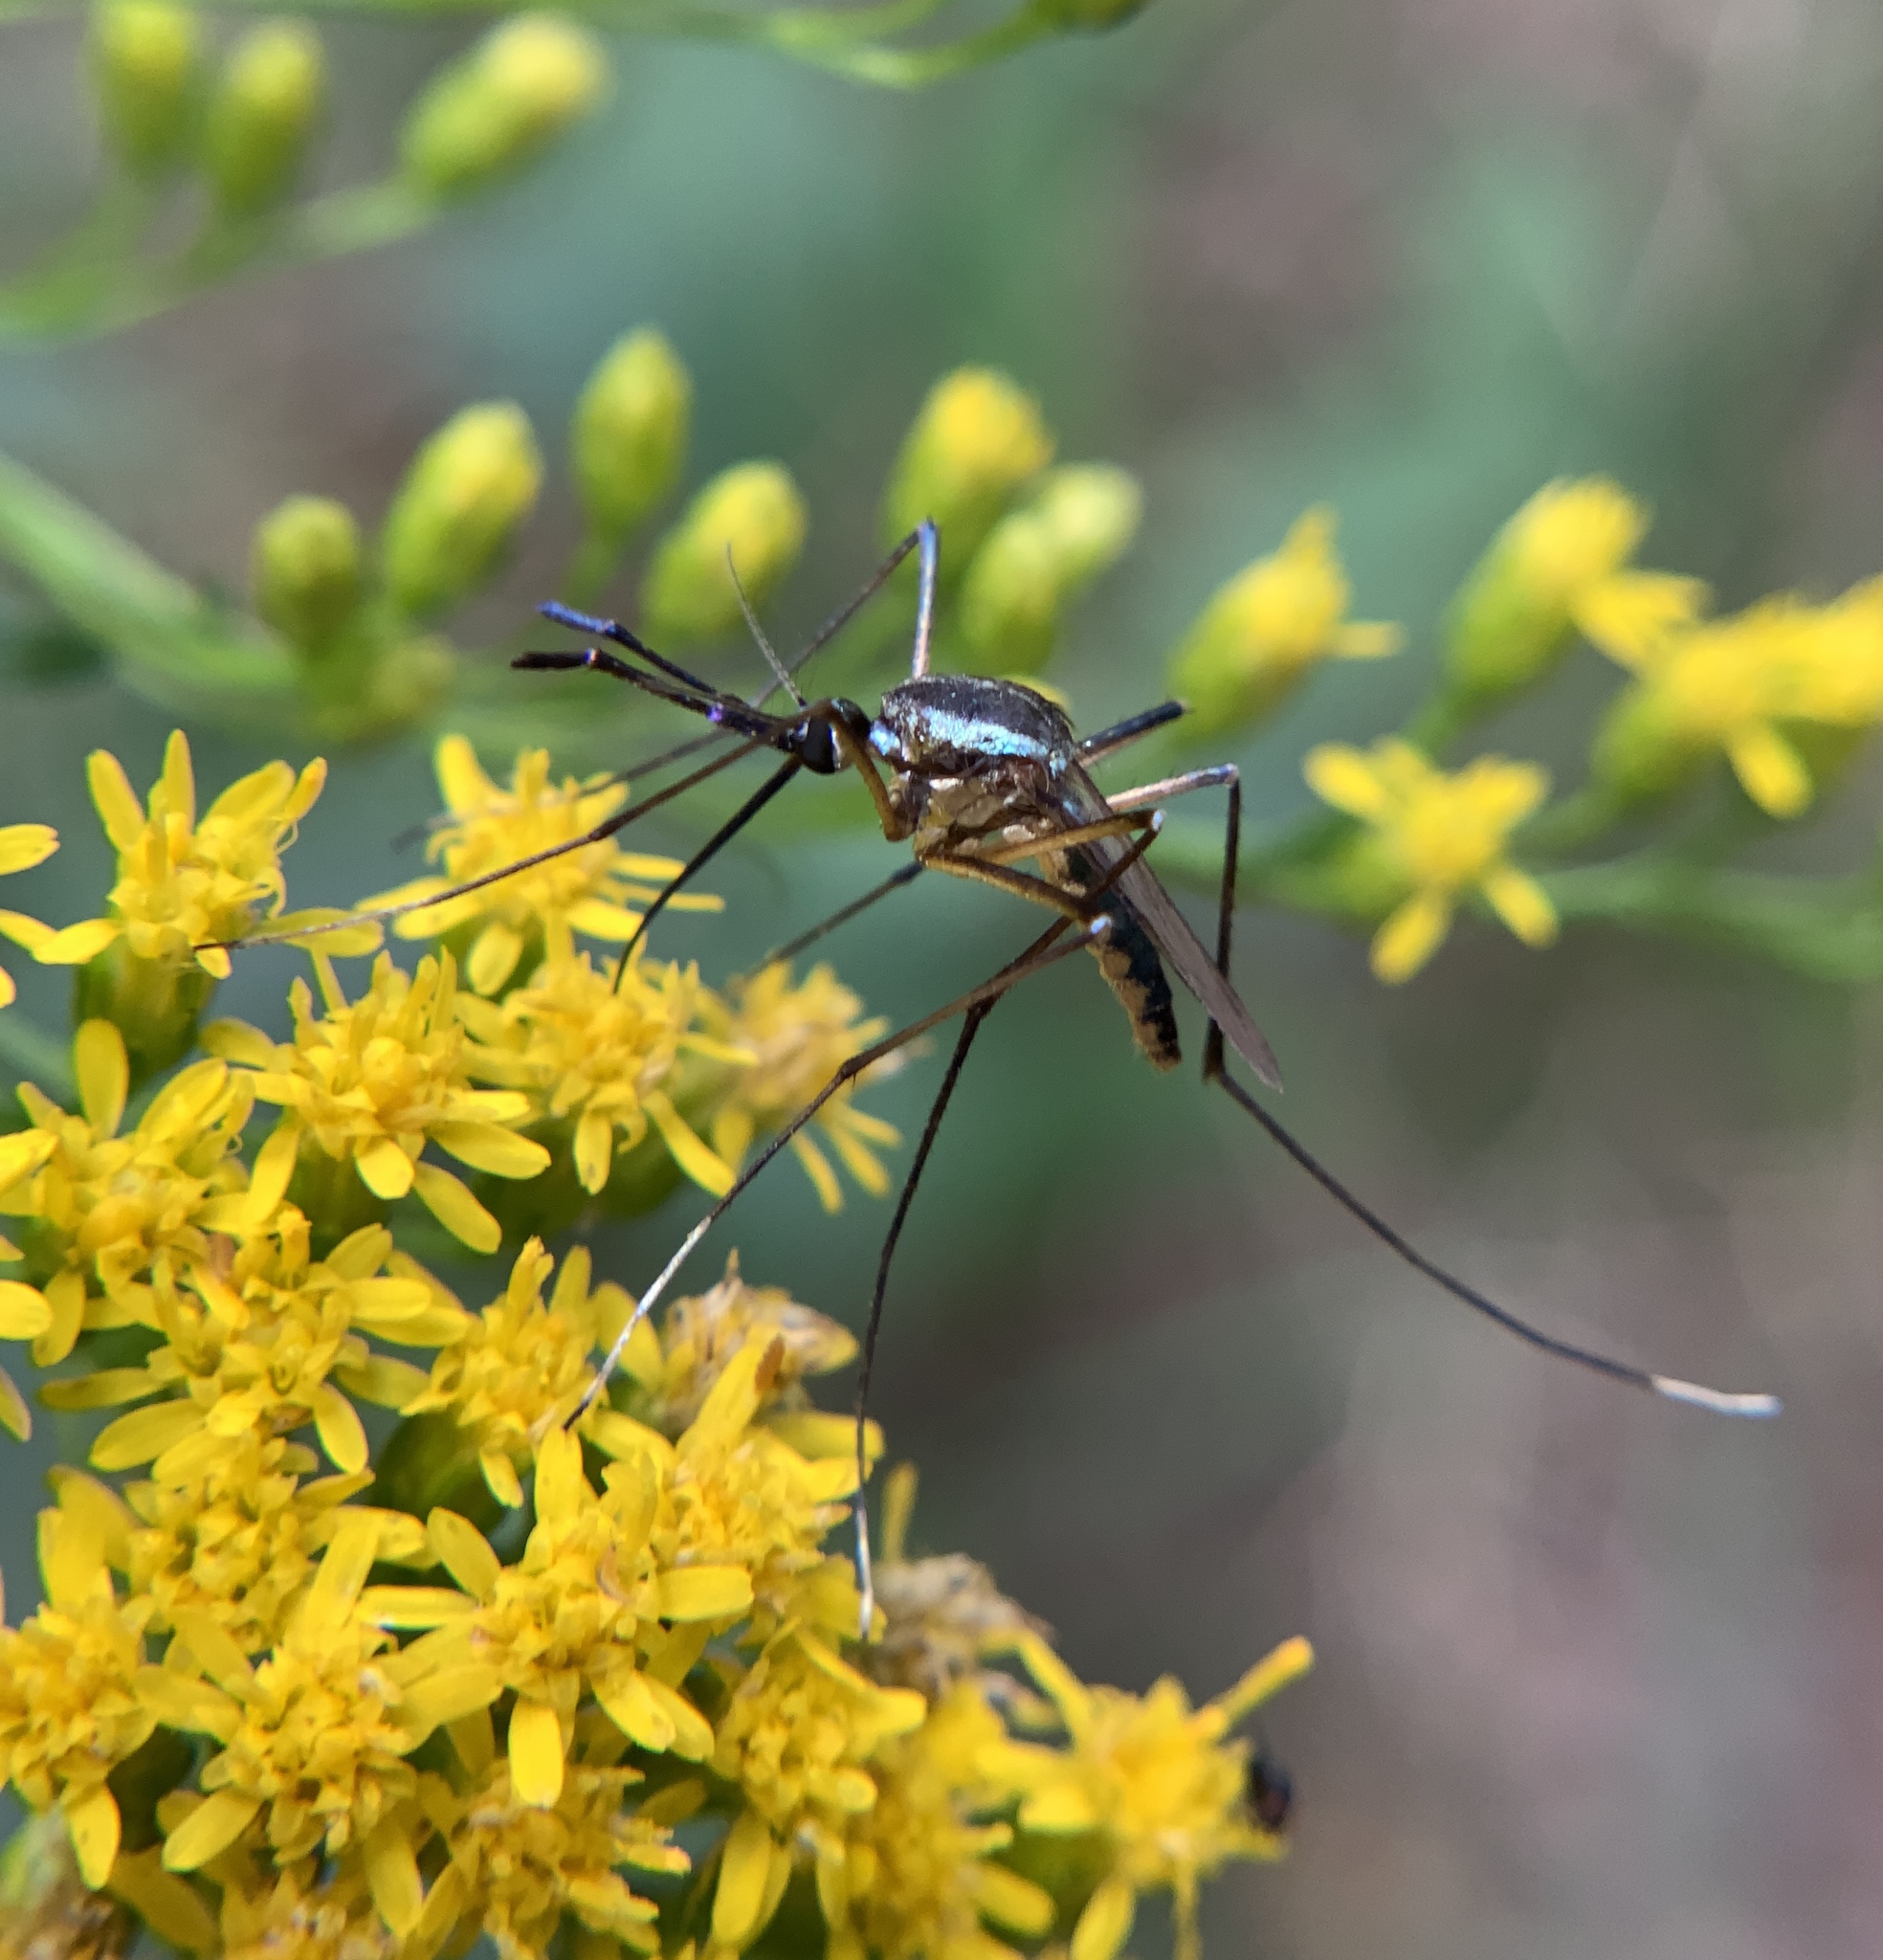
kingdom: Animalia
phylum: Arthropoda
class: Insecta
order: Diptera
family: Culicidae
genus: Toxorhynchites
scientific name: Toxorhynchites rutilus
